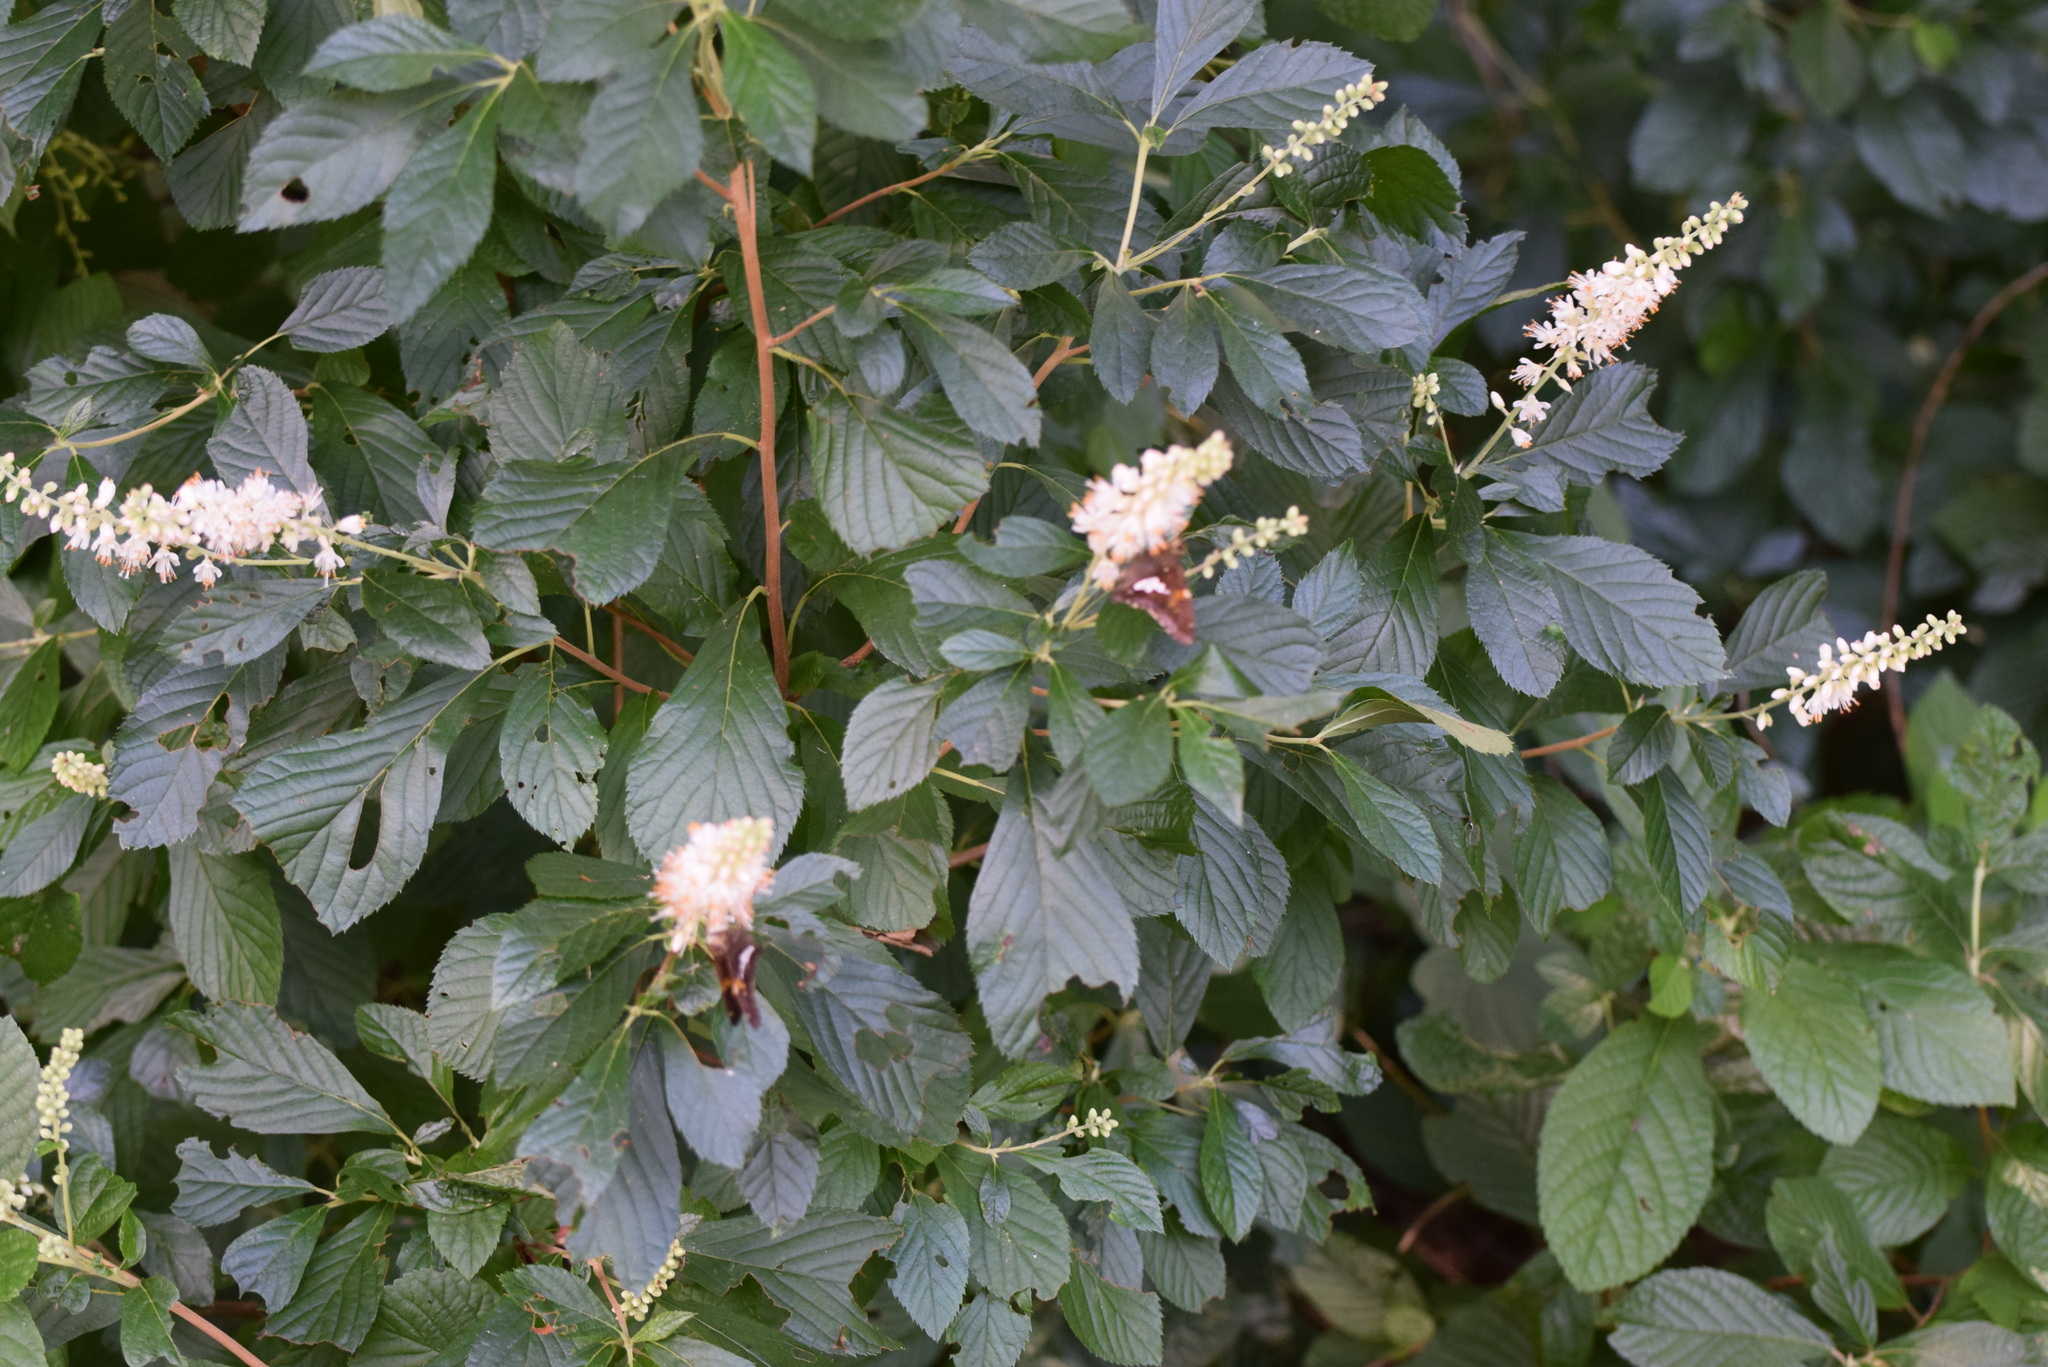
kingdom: Animalia
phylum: Arthropoda
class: Insecta
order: Lepidoptera
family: Hesperiidae
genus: Epargyreus
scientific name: Epargyreus clarus
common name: Silver-spotted skipper
